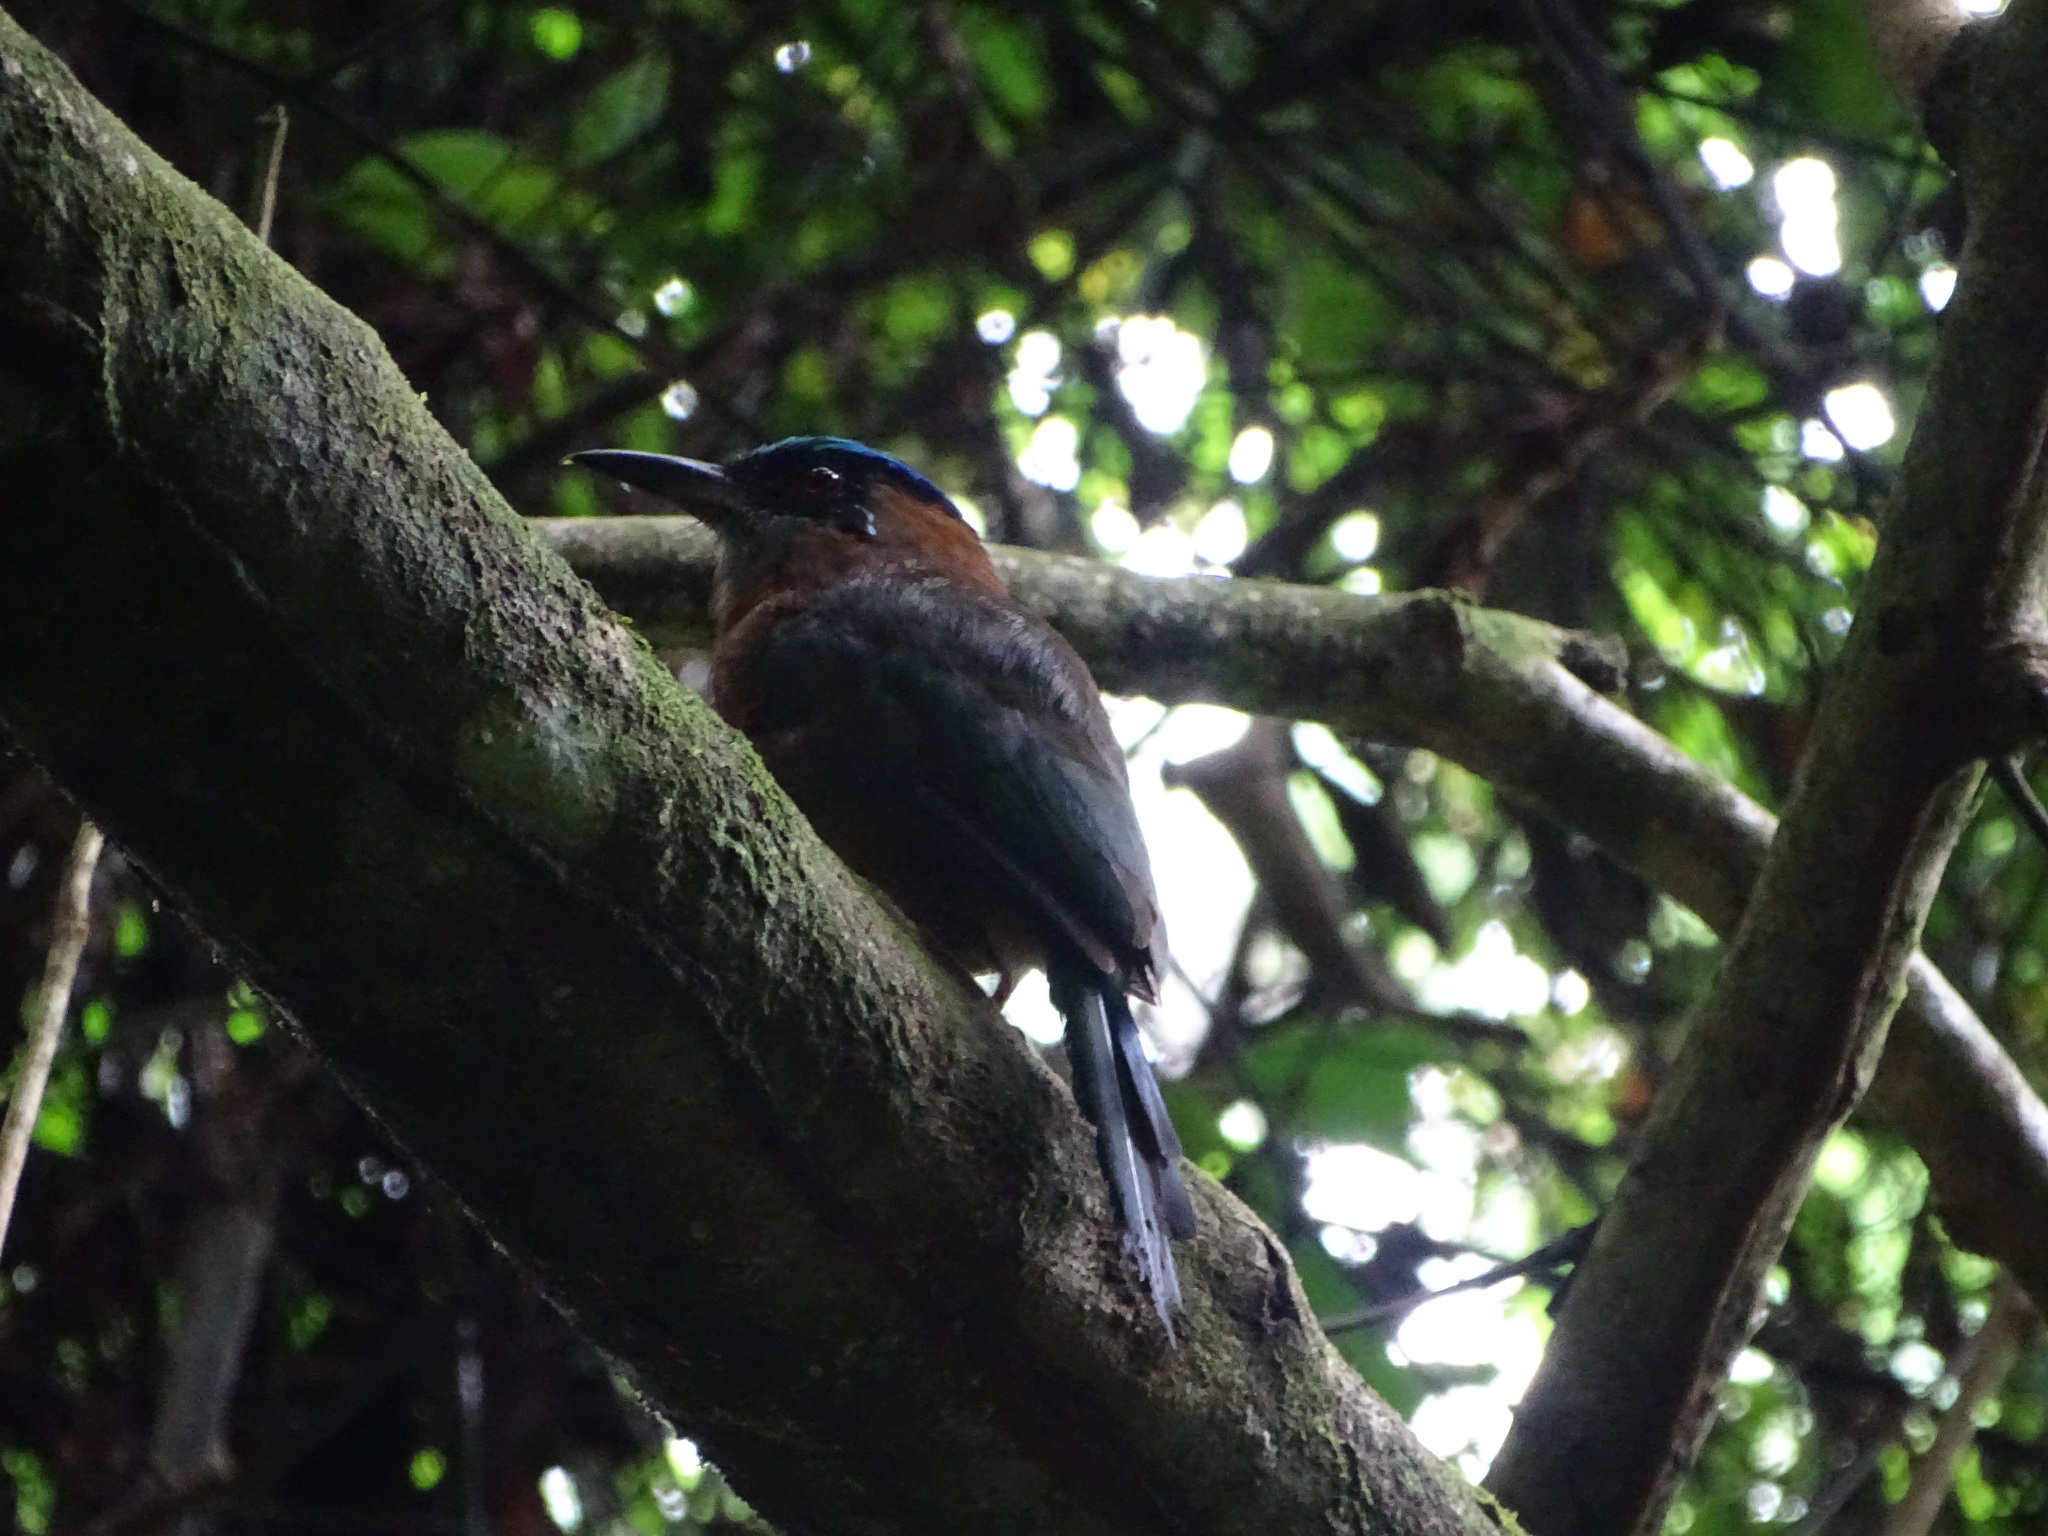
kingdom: Animalia
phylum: Chordata
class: Aves
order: Coraciiformes
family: Momotidae
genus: Momotus
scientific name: Momotus lessonii
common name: Lesson's motmot
